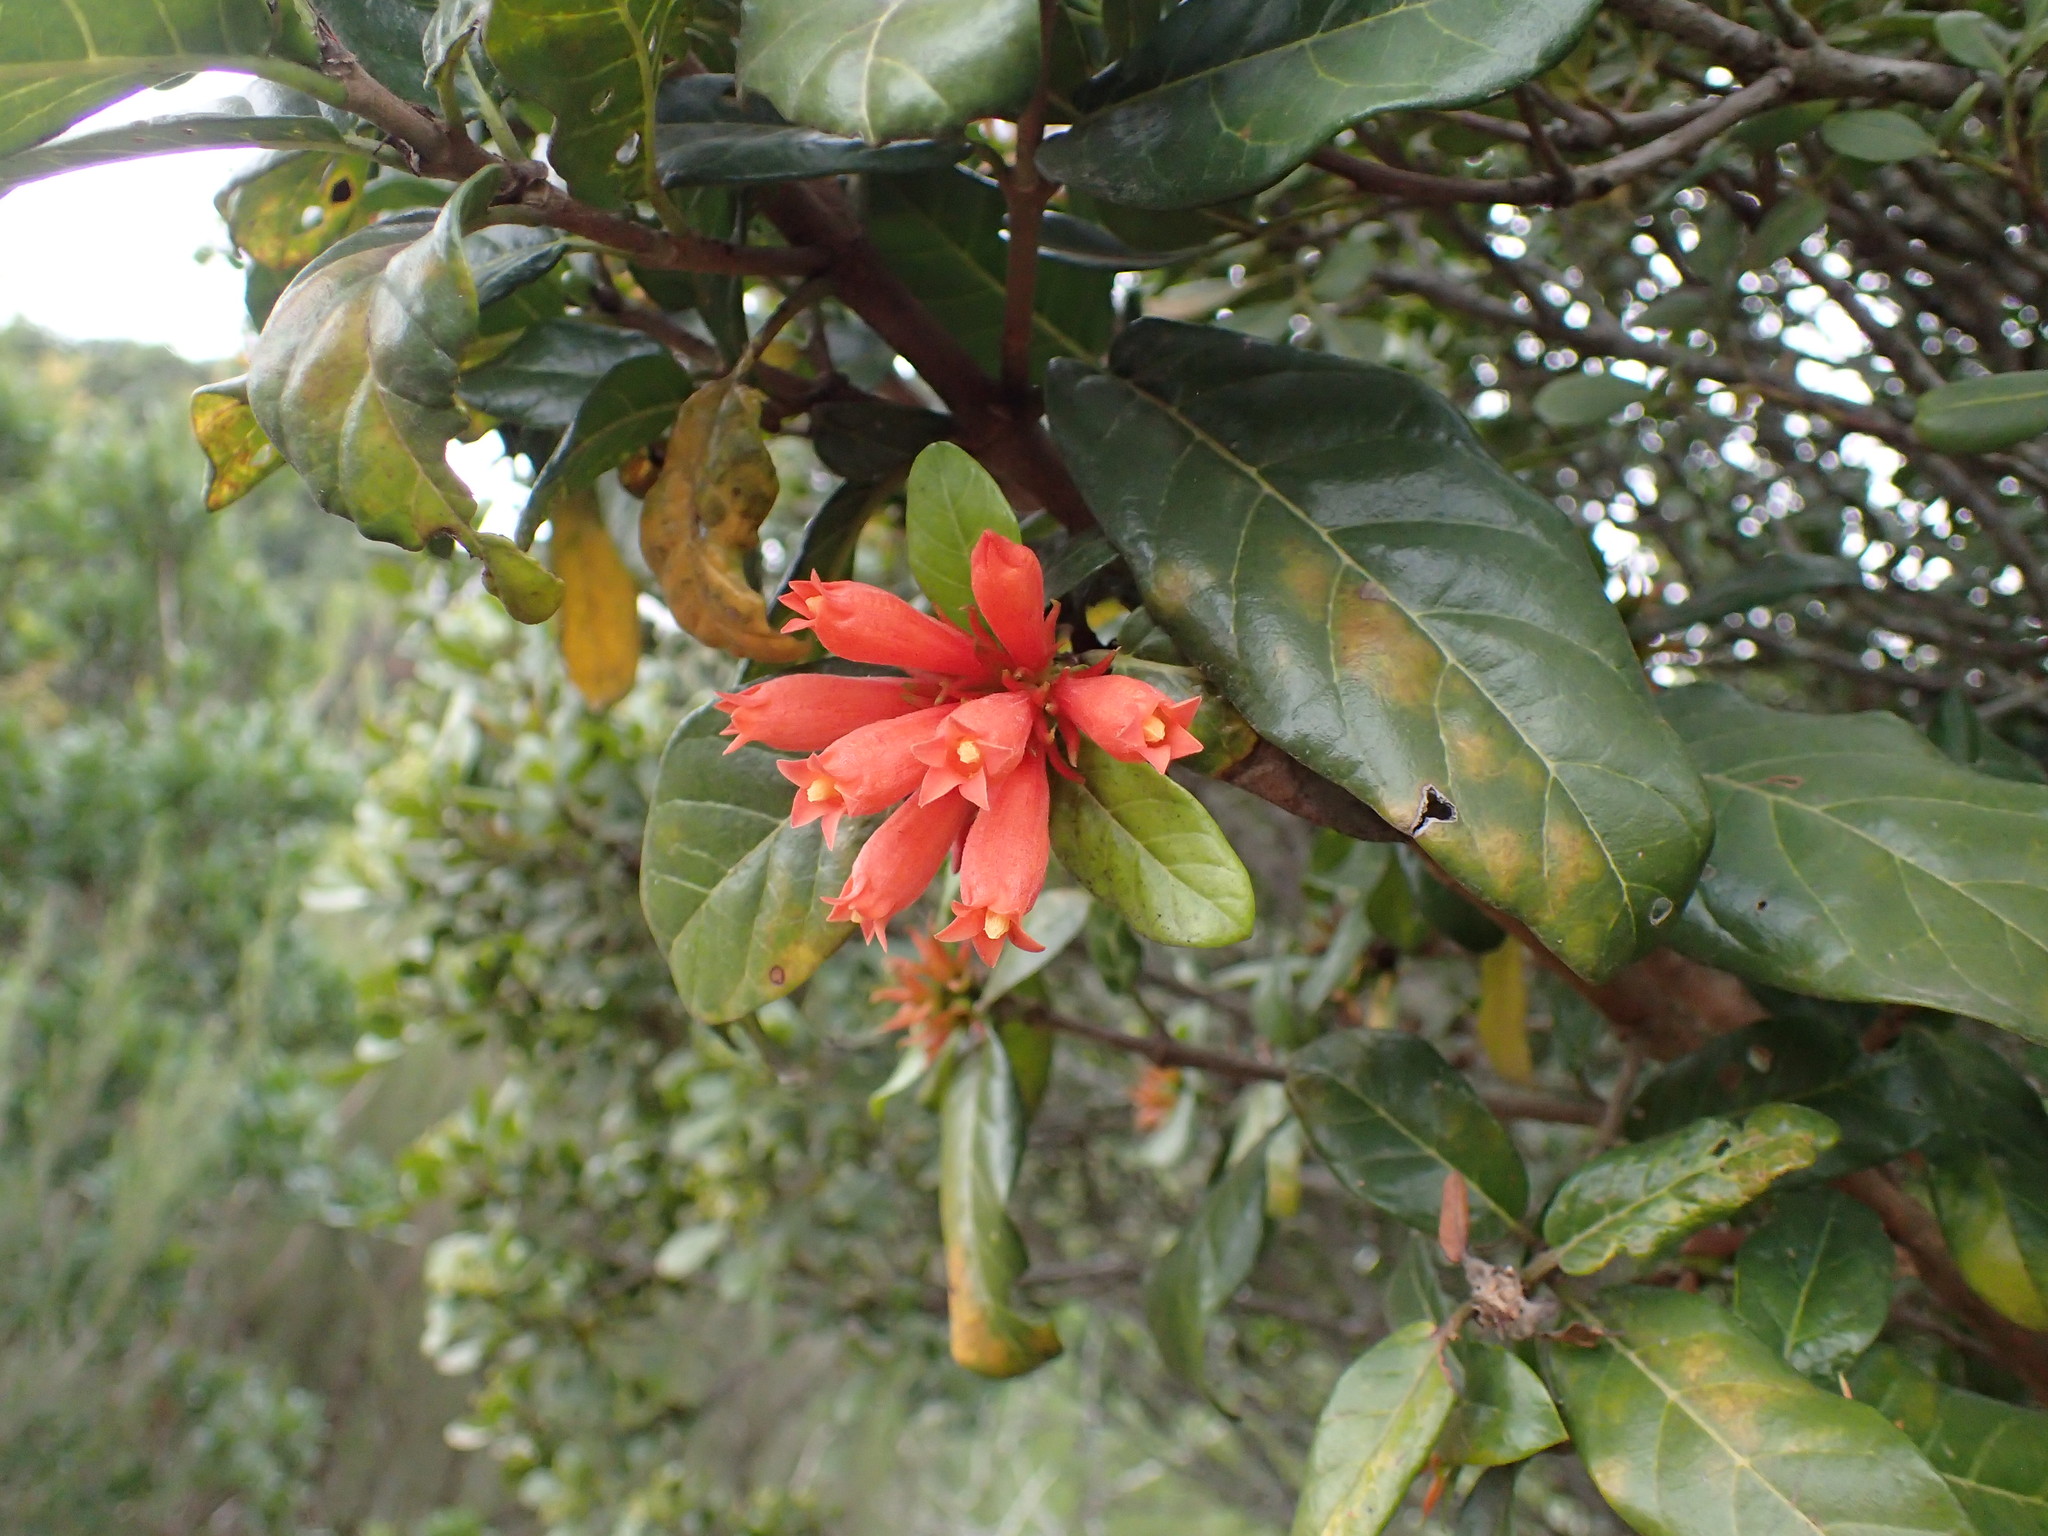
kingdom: Plantae
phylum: Tracheophyta
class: Magnoliopsida
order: Gentianales
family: Rubiaceae
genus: Burchellia
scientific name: Burchellia bubalina
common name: Wild pomegranate
